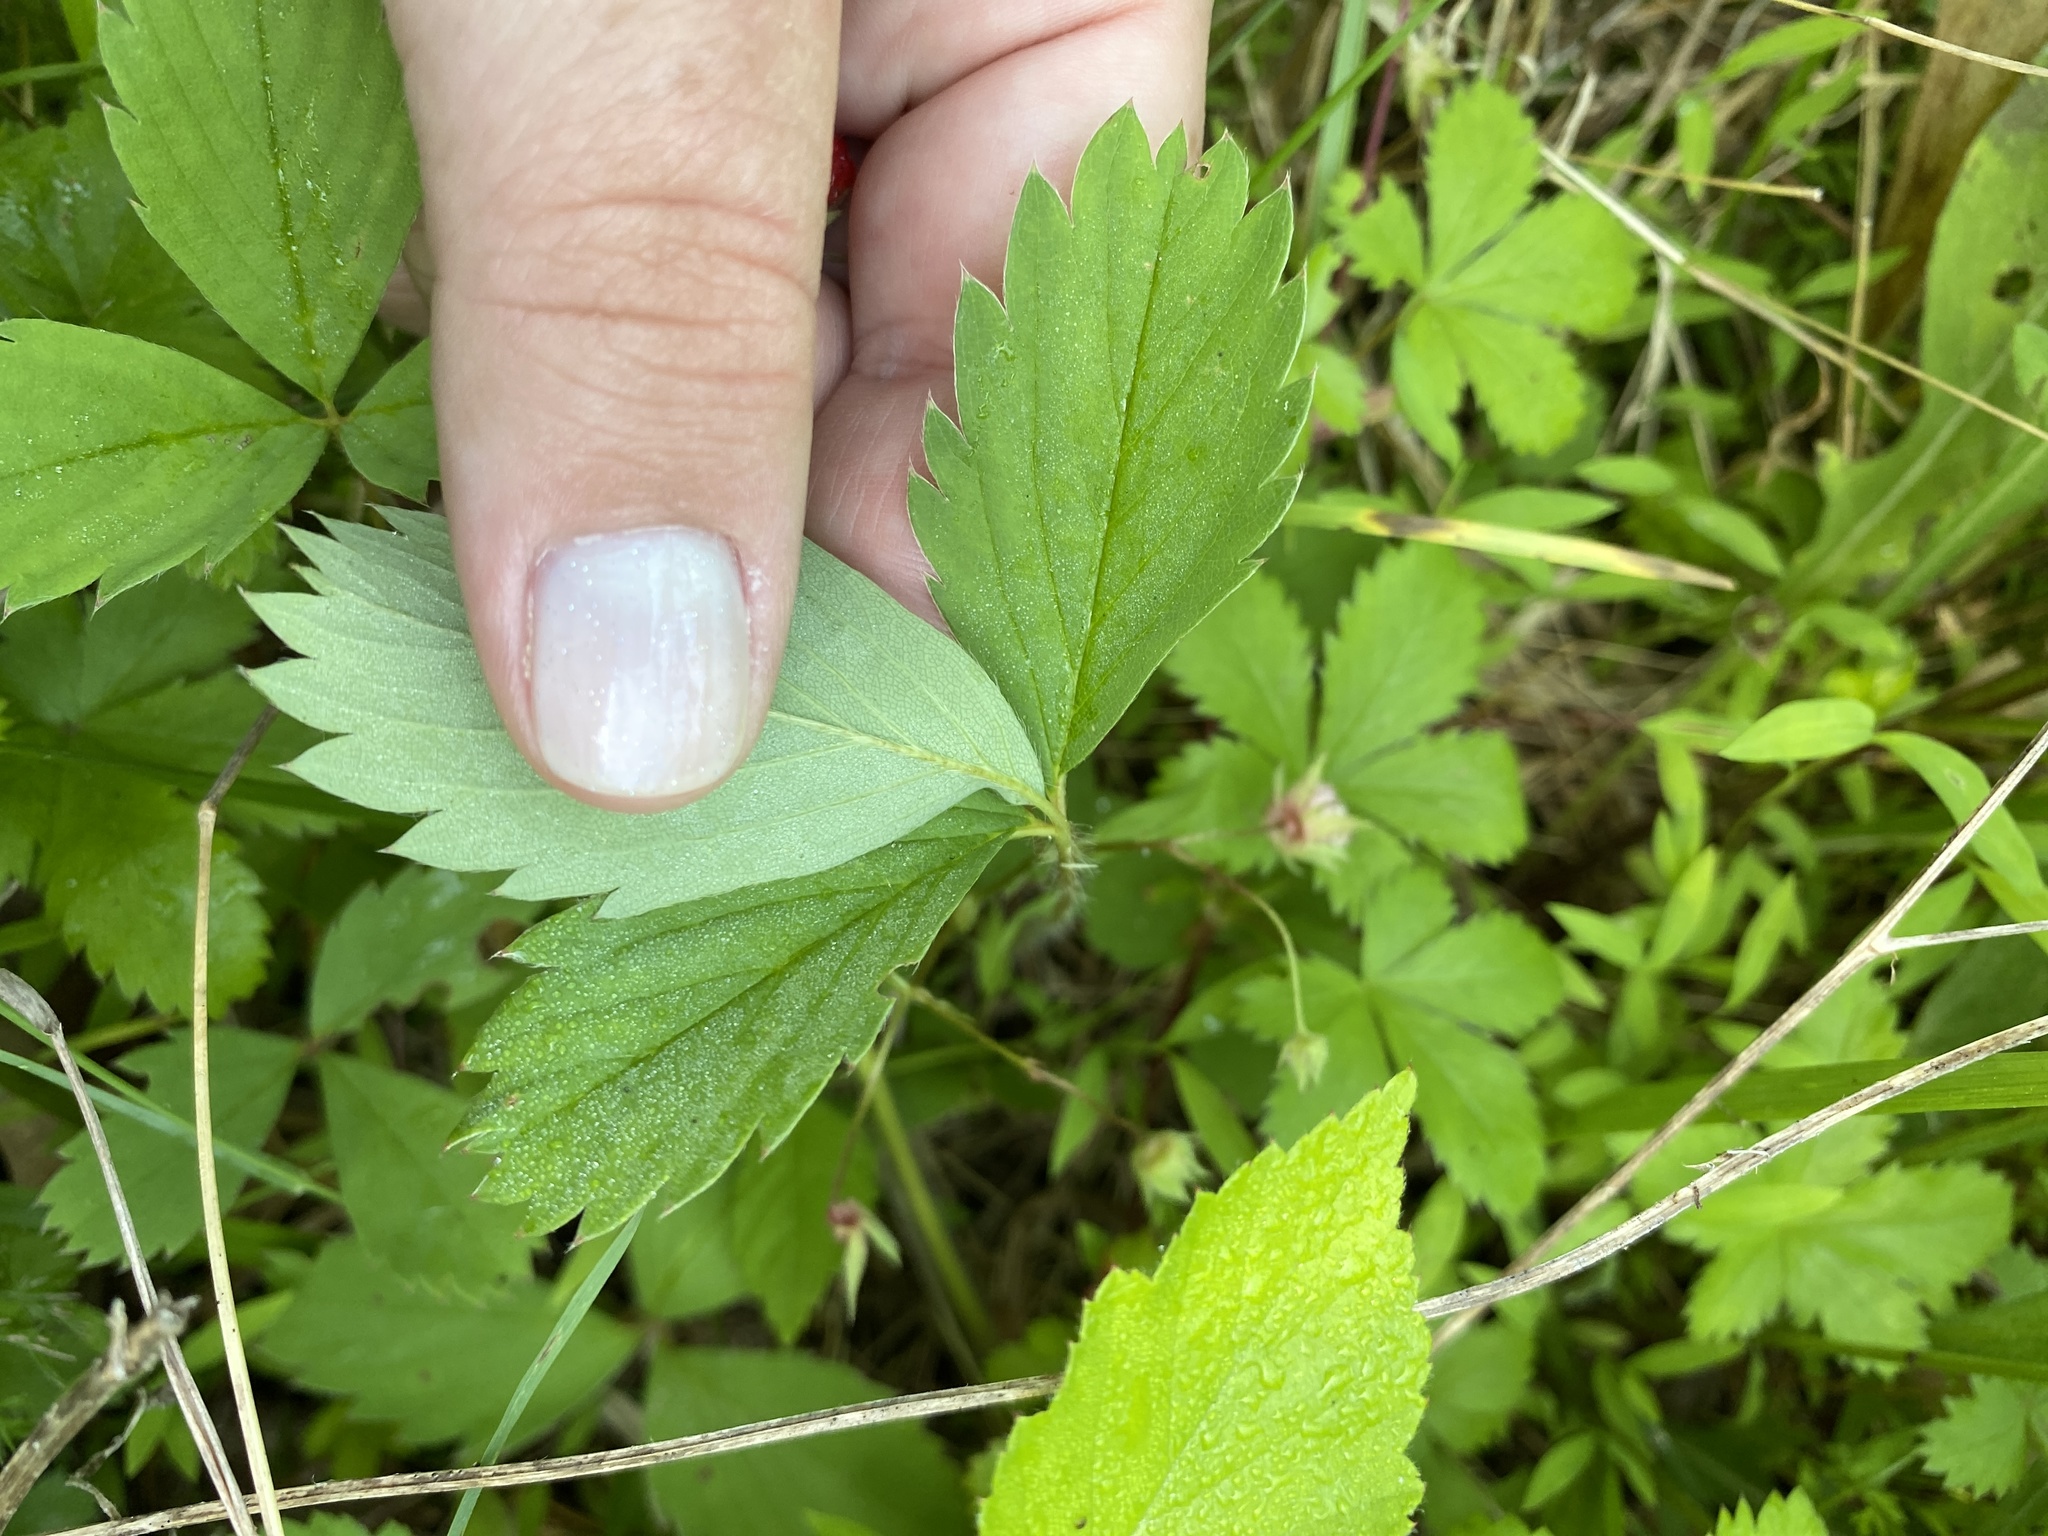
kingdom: Plantae
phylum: Tracheophyta
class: Magnoliopsida
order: Rosales
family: Rosaceae
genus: Fragaria
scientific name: Fragaria virginiana
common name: Thickleaved wild strawberry
